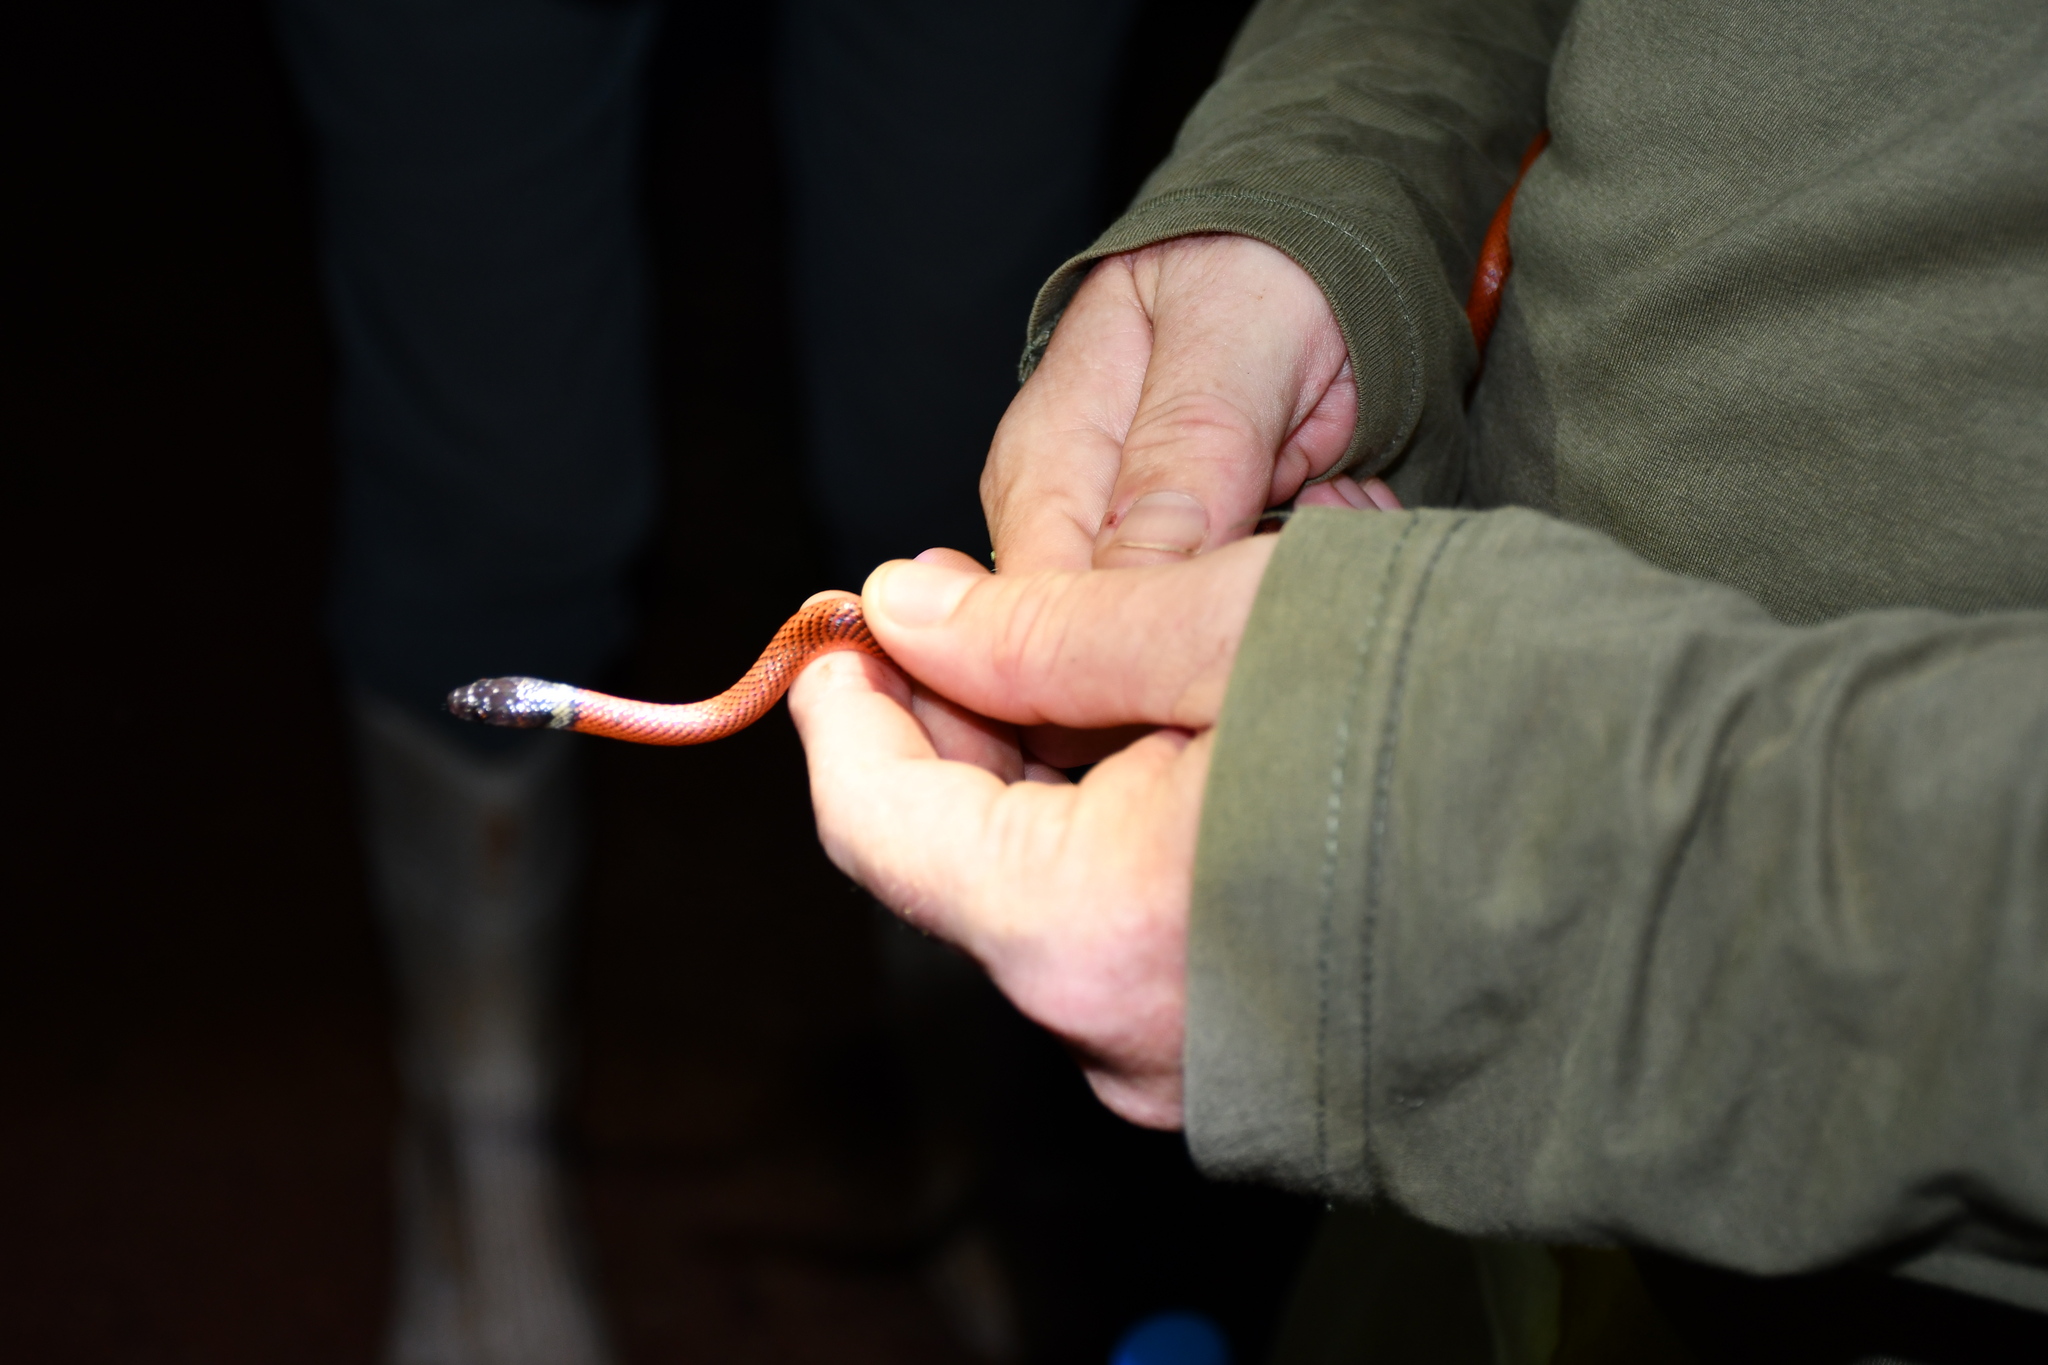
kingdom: Animalia
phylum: Chordata
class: Squamata
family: Colubridae
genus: Oxyrhopus
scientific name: Oxyrhopus melanogenys
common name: Tschudi's false coral snake
